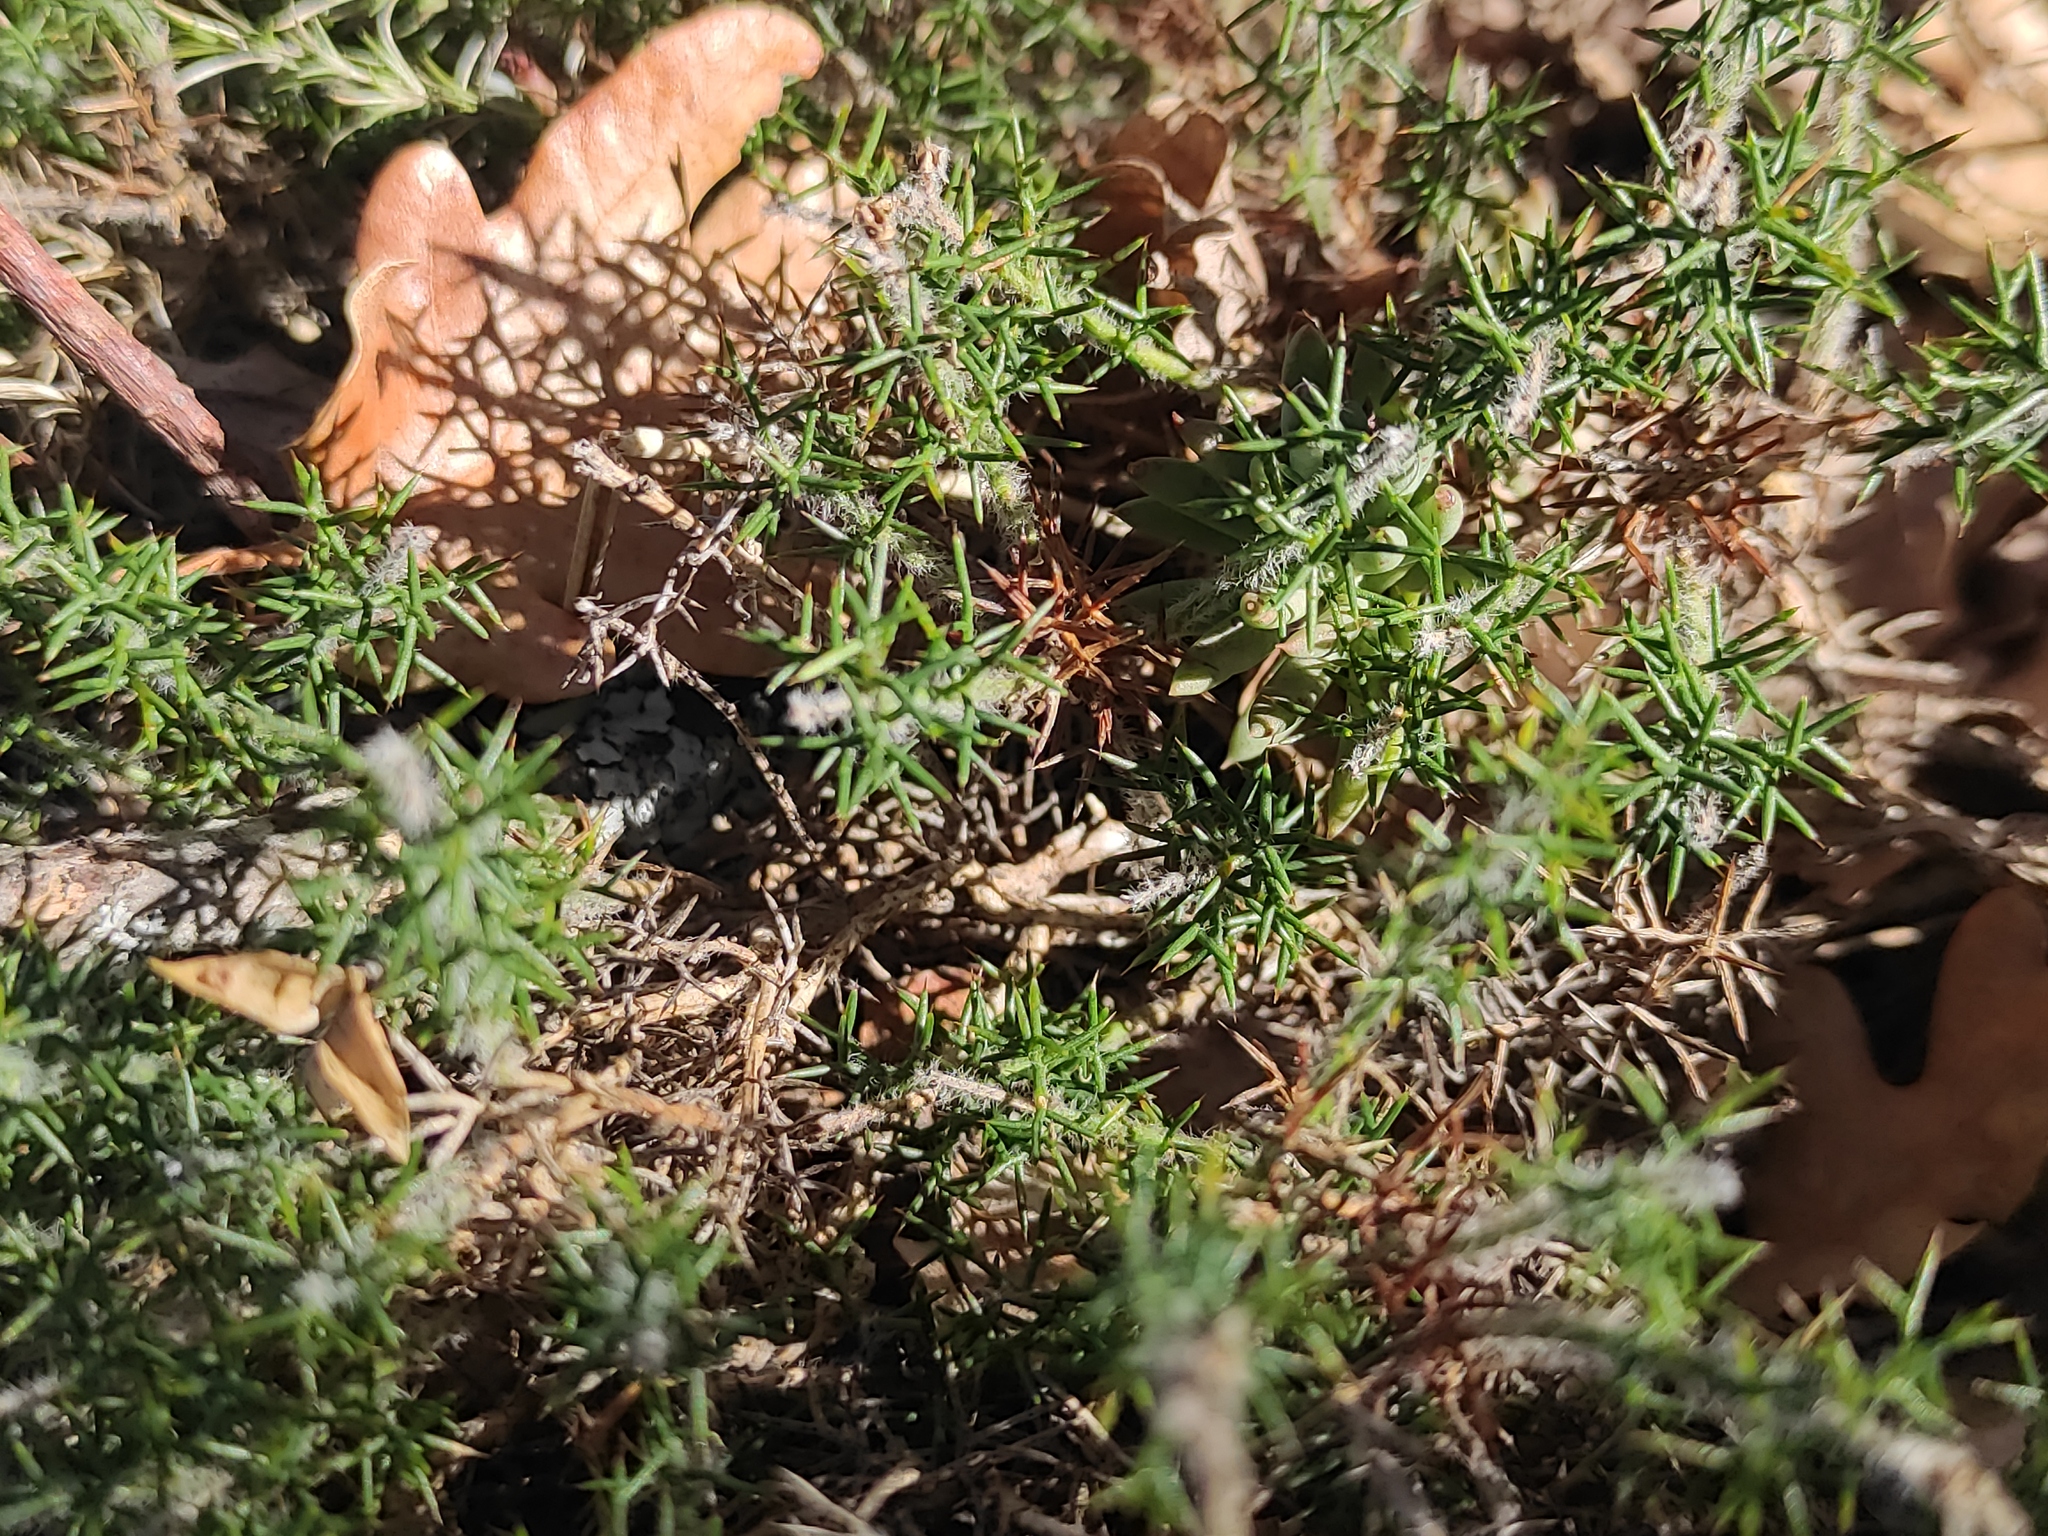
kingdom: Plantae
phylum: Tracheophyta
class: Magnoliopsida
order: Fabales
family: Fabaceae
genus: Genista
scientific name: Genista hispanica
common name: Spanish gorse
